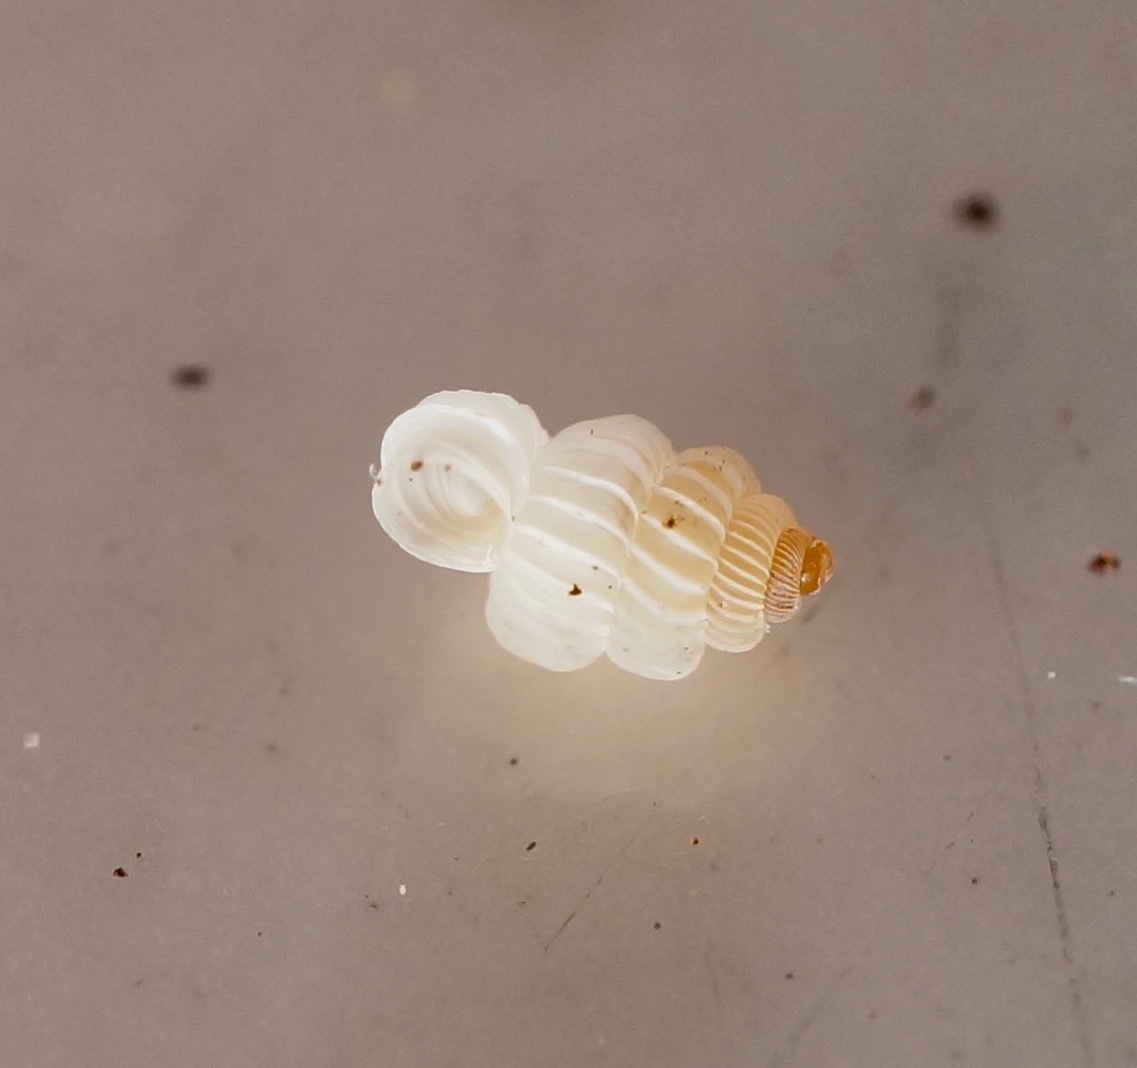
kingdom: Animalia
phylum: Mollusca
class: Gastropoda
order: Architaenioglossa
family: Diplommatinidae
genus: Palmatina
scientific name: Palmatina quintali
